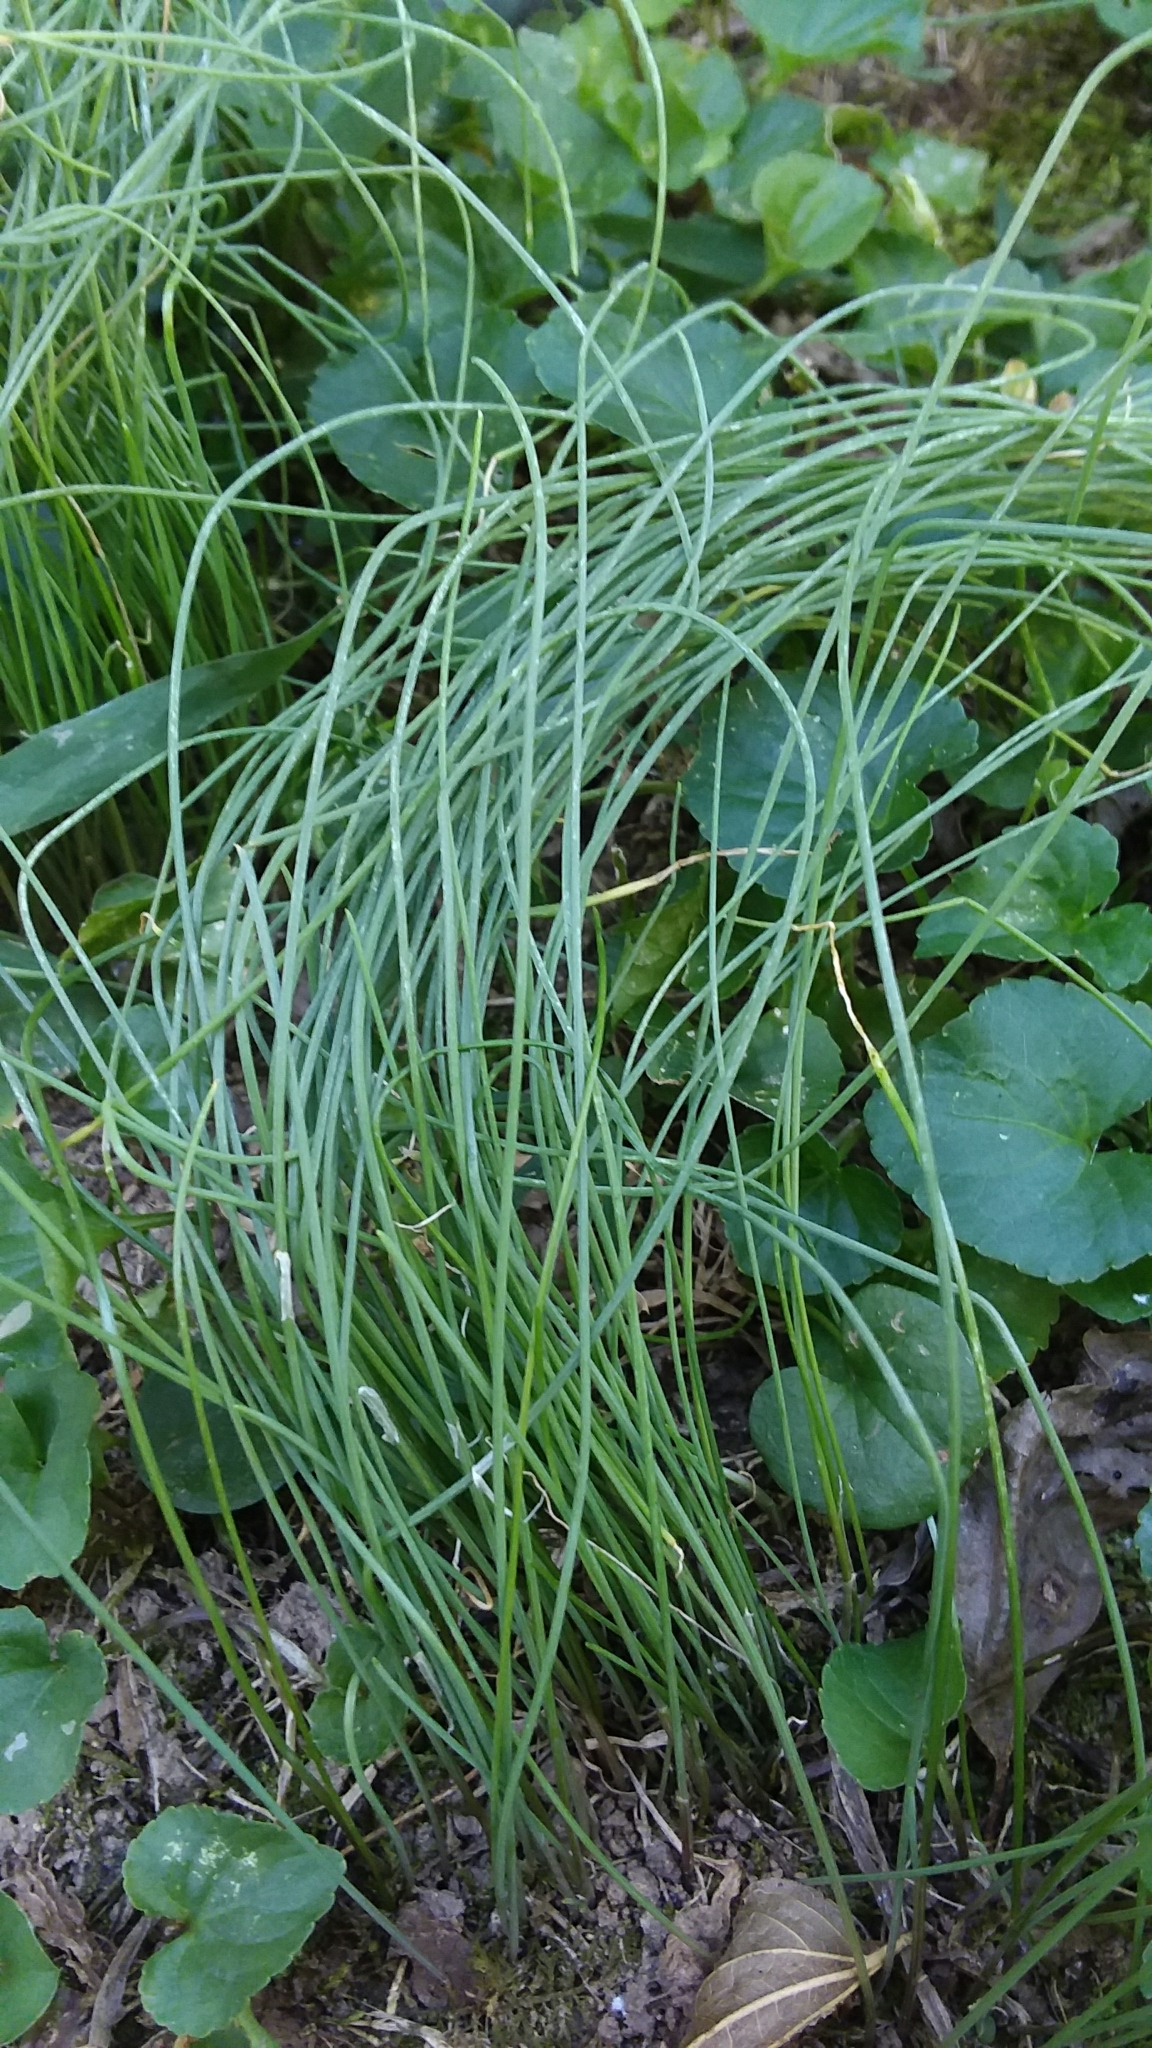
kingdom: Plantae
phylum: Tracheophyta
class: Liliopsida
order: Asparagales
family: Amaryllidaceae
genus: Allium
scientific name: Allium vineale
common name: Crow garlic
